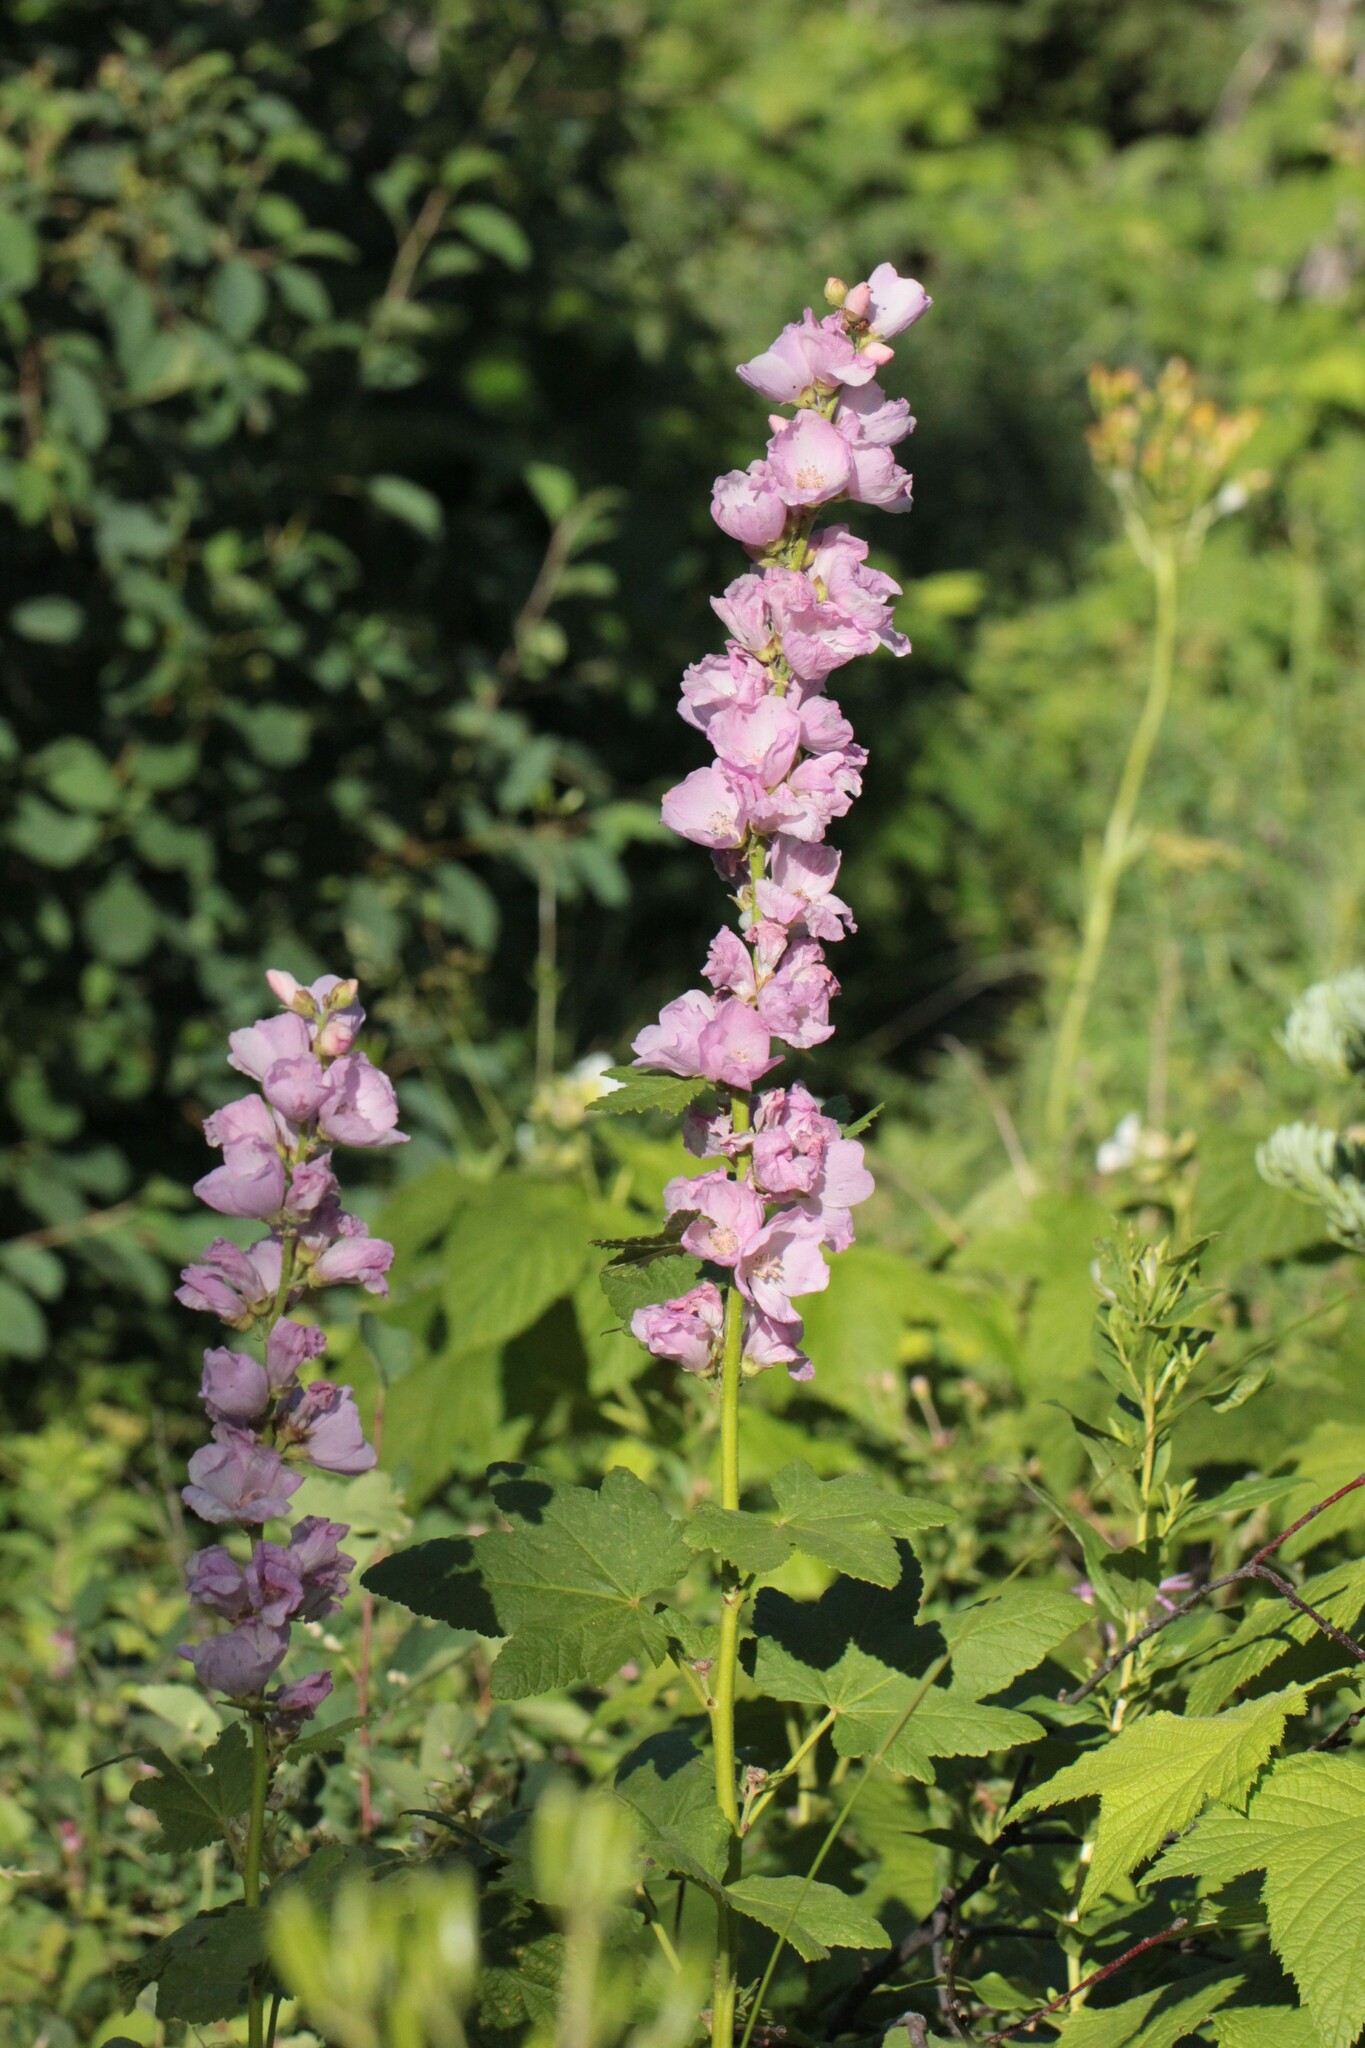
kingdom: Plantae
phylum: Tracheophyta
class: Magnoliopsida
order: Malvales
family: Malvaceae
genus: Iliamna
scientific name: Iliamna rivularis
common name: Wild hollyhock
